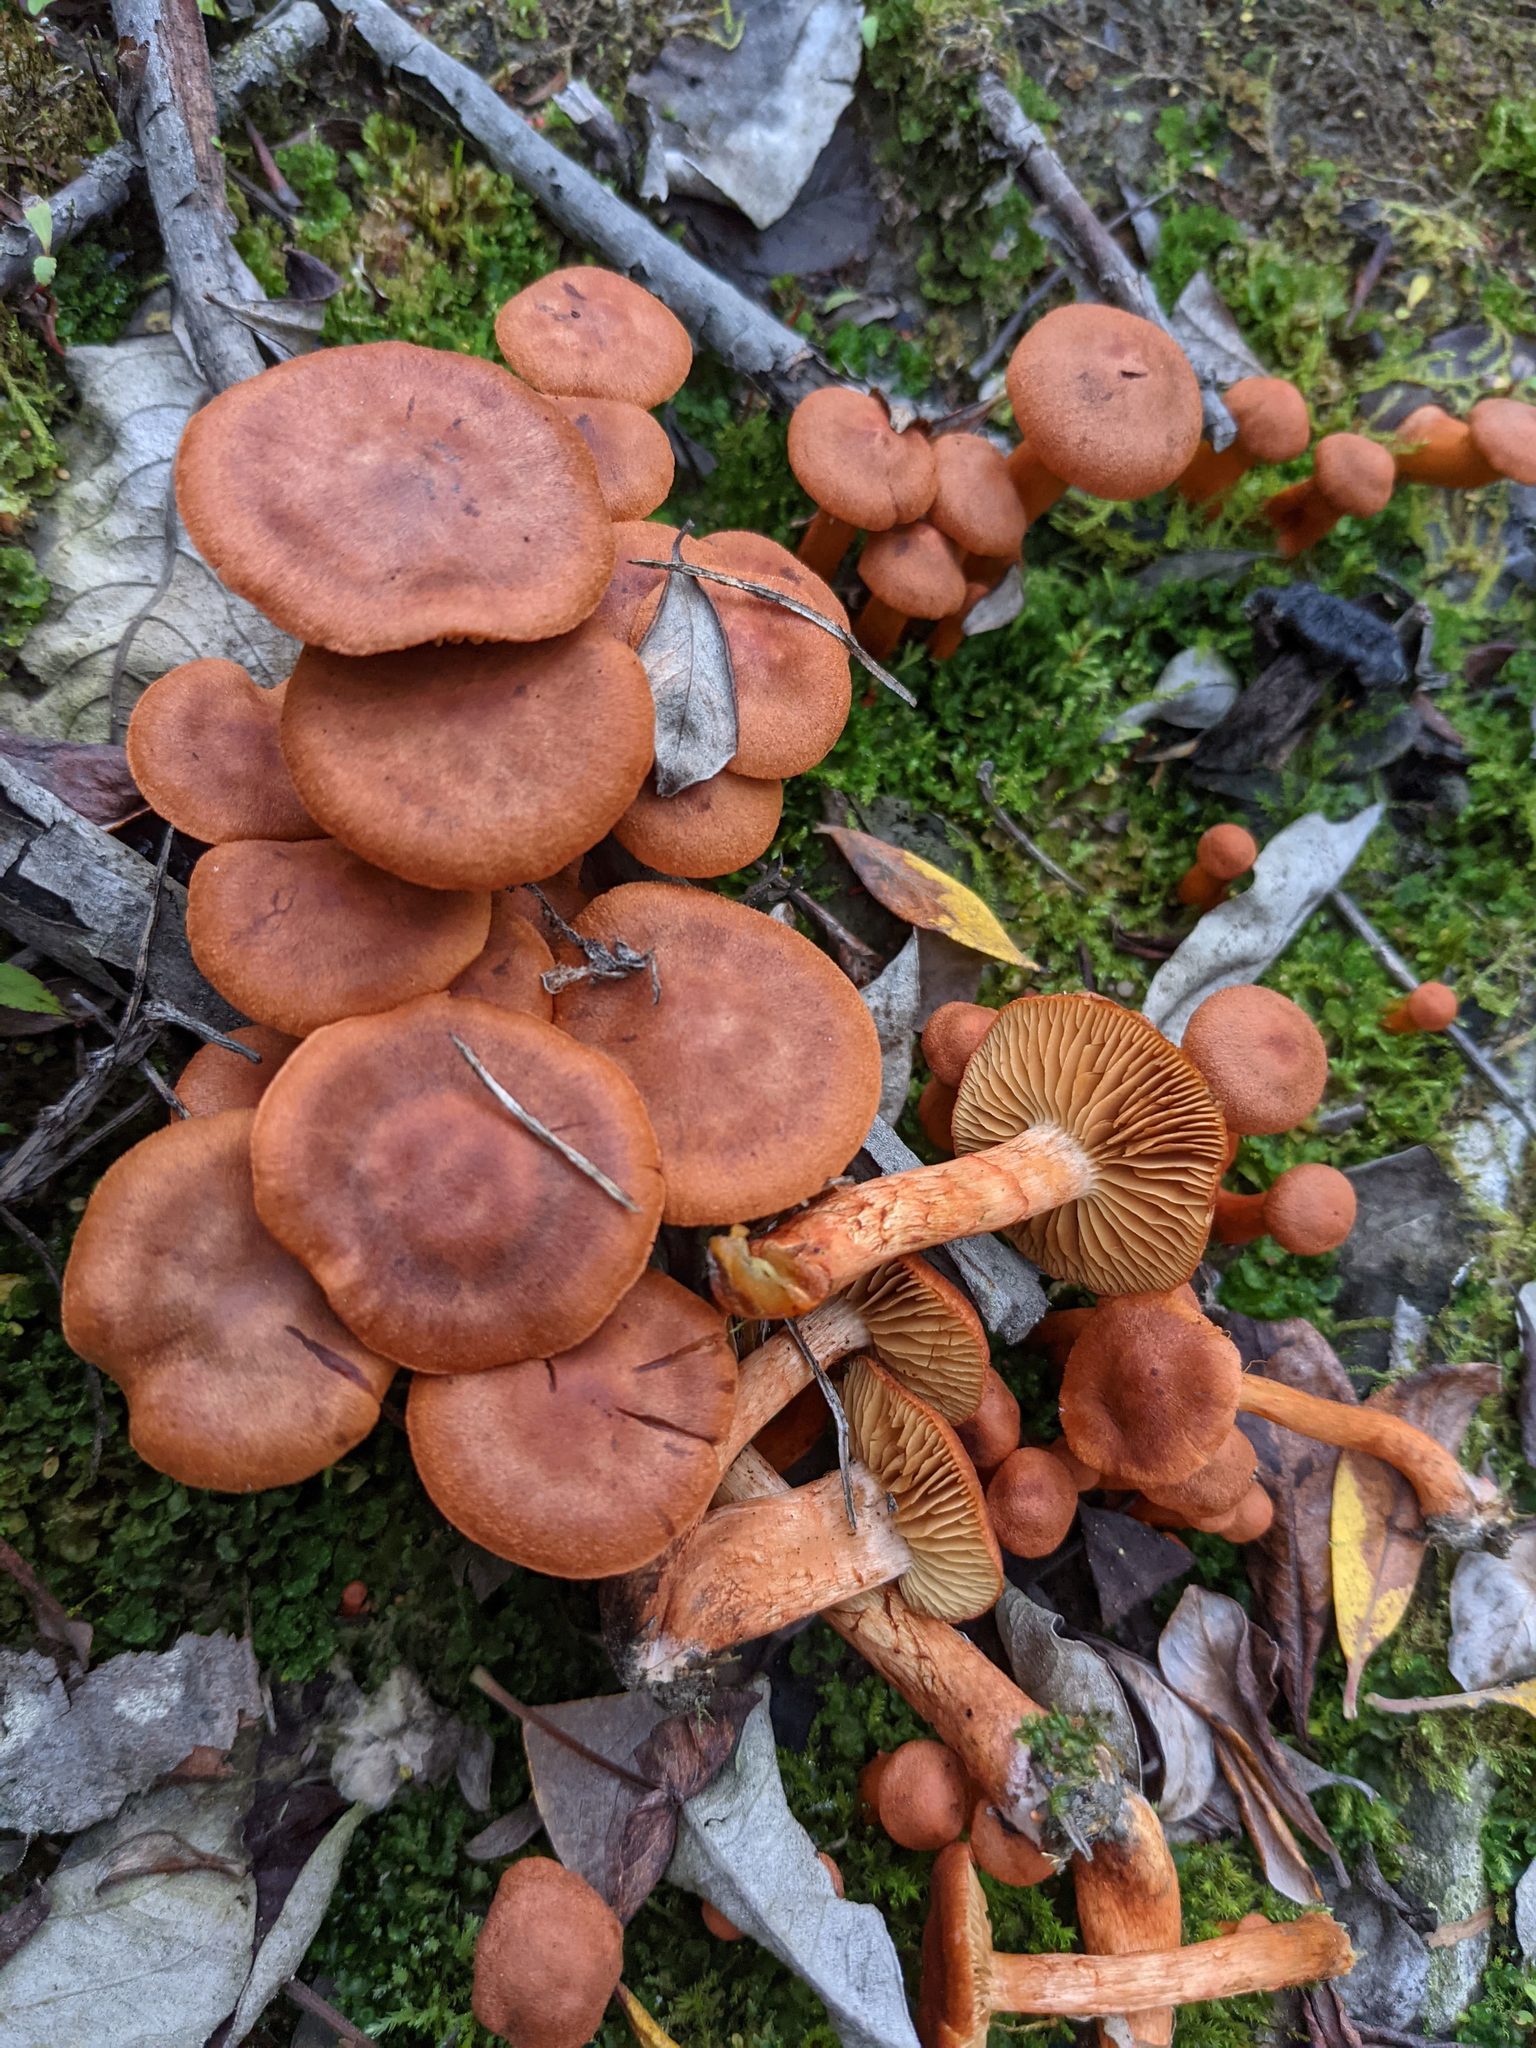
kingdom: Fungi
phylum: Basidiomycota
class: Agaricomycetes
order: Agaricales
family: Cortinariaceae
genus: Cortinarius
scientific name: Cortinarius uliginosus
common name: Marsh webcap
